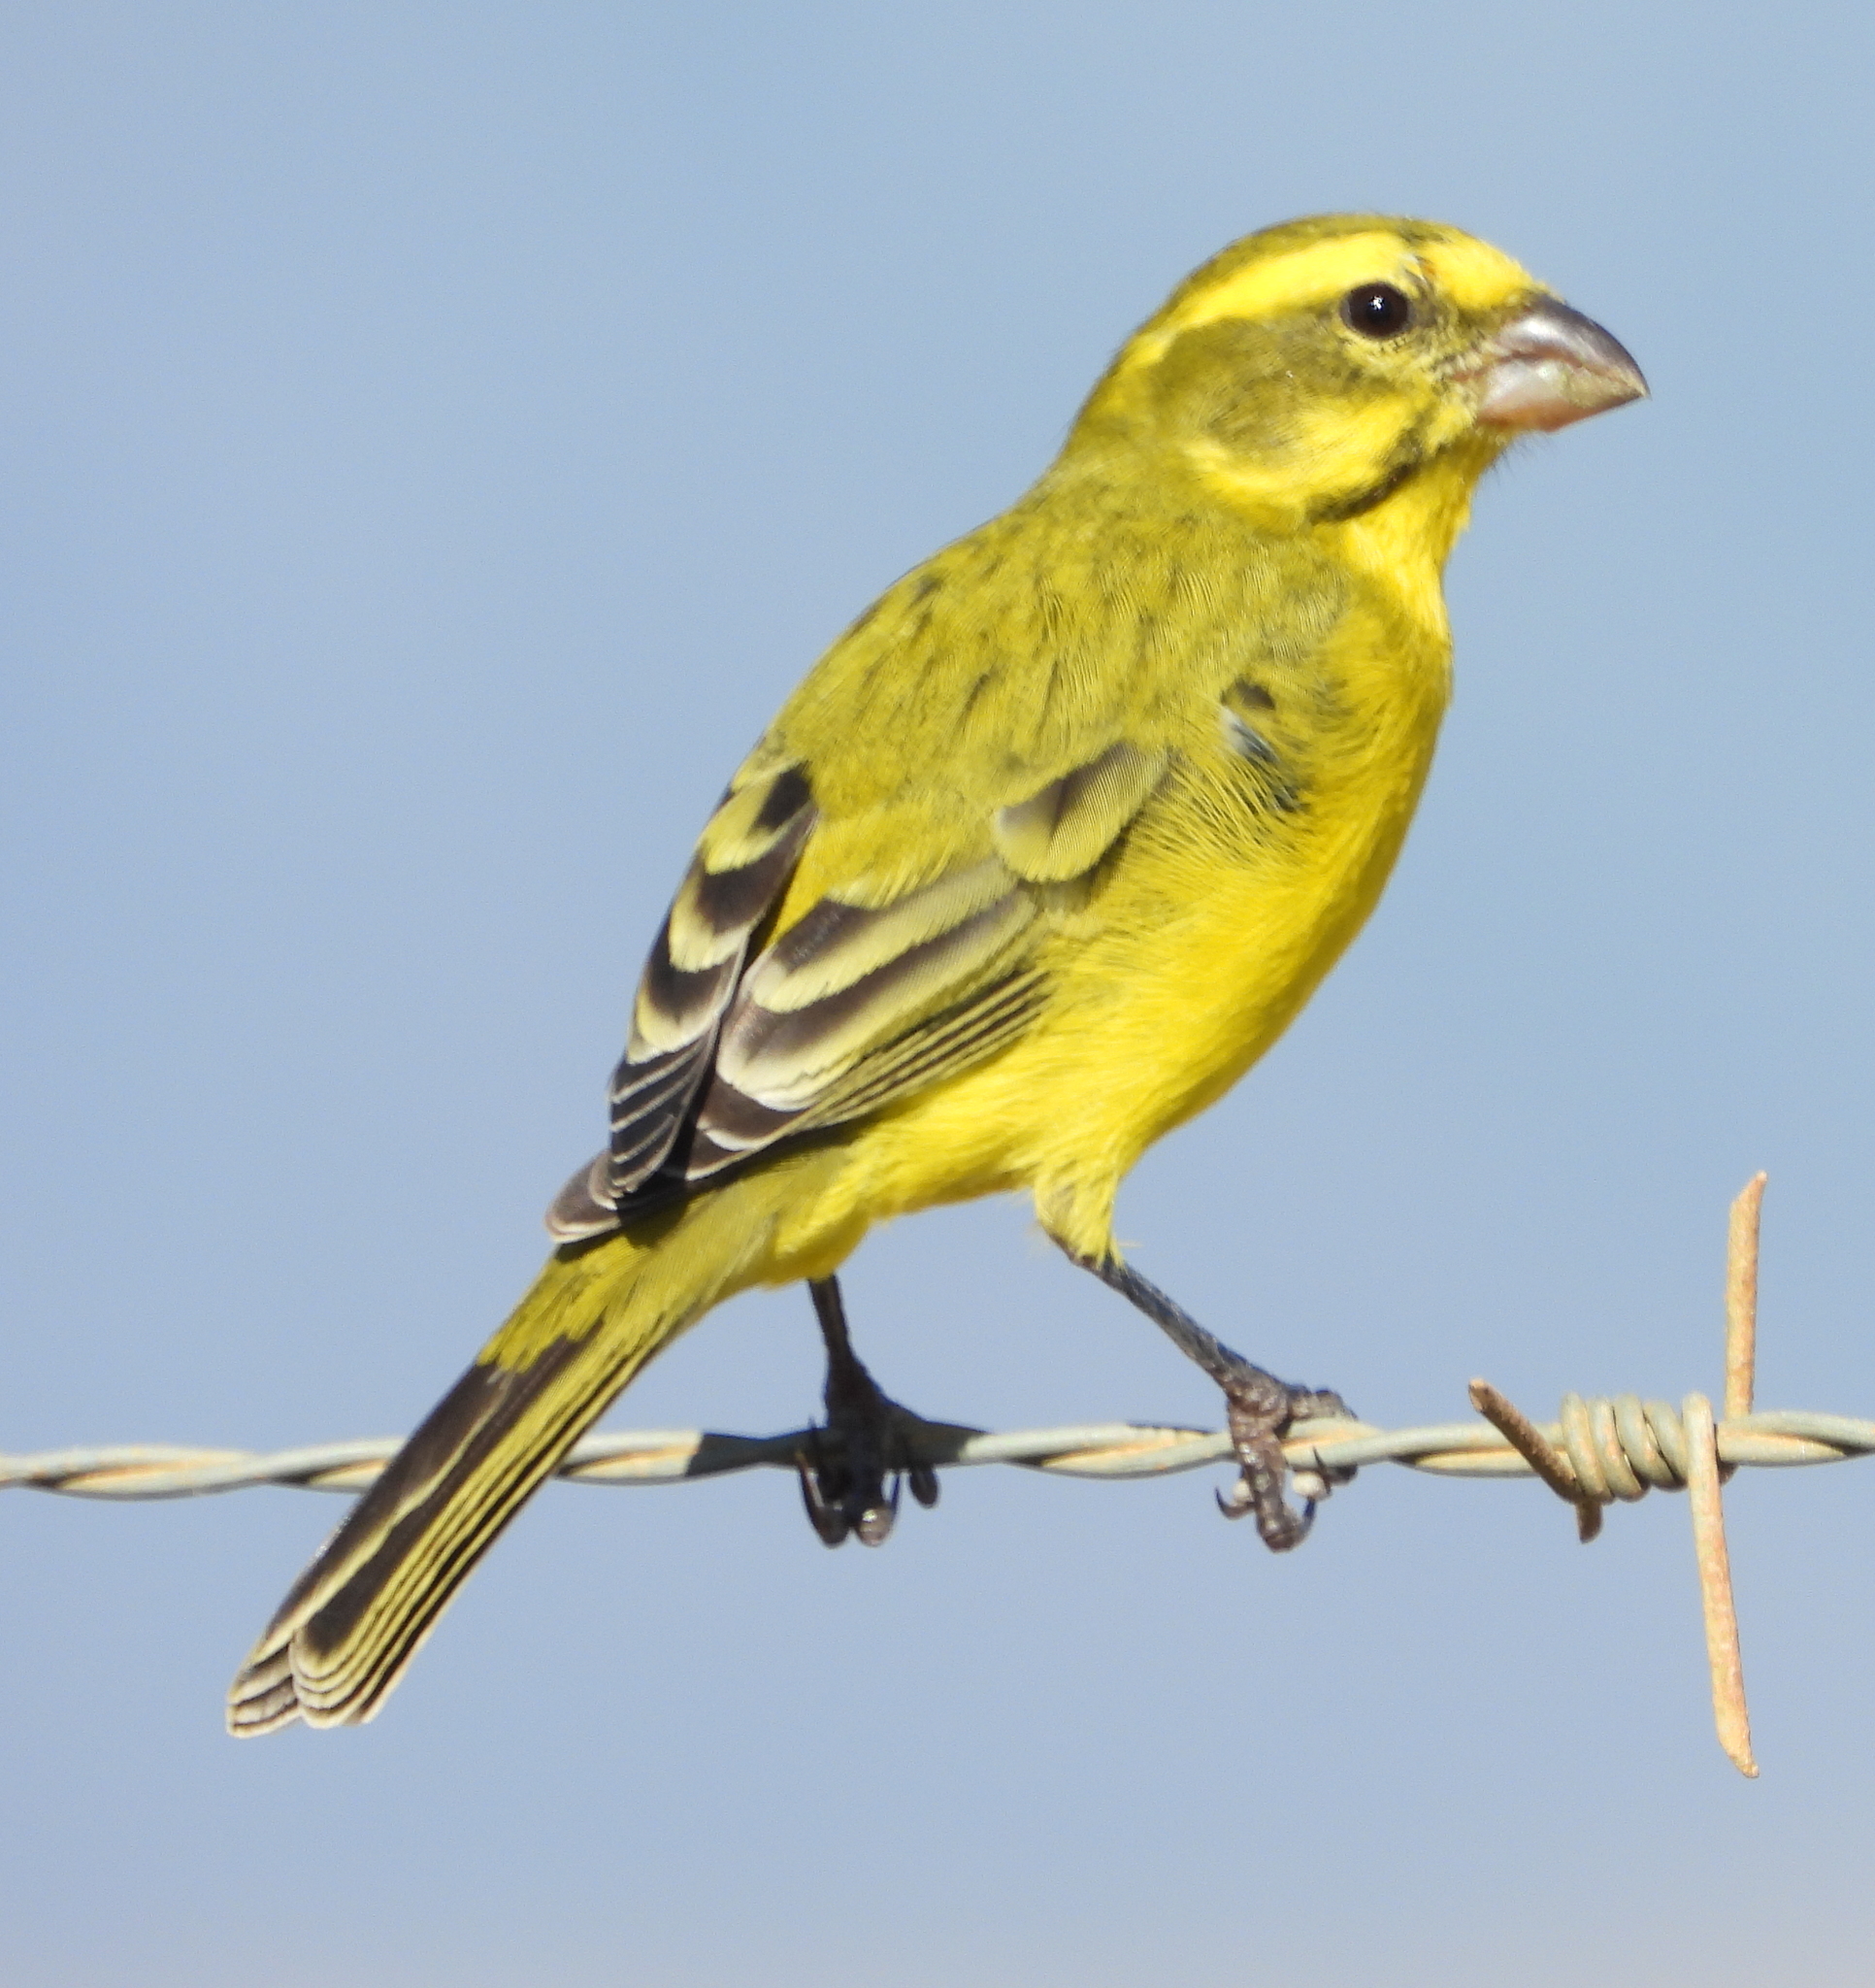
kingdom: Animalia
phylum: Chordata
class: Aves
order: Passeriformes
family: Fringillidae
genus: Crithagra
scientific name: Crithagra flaviventris
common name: Yellow canary
